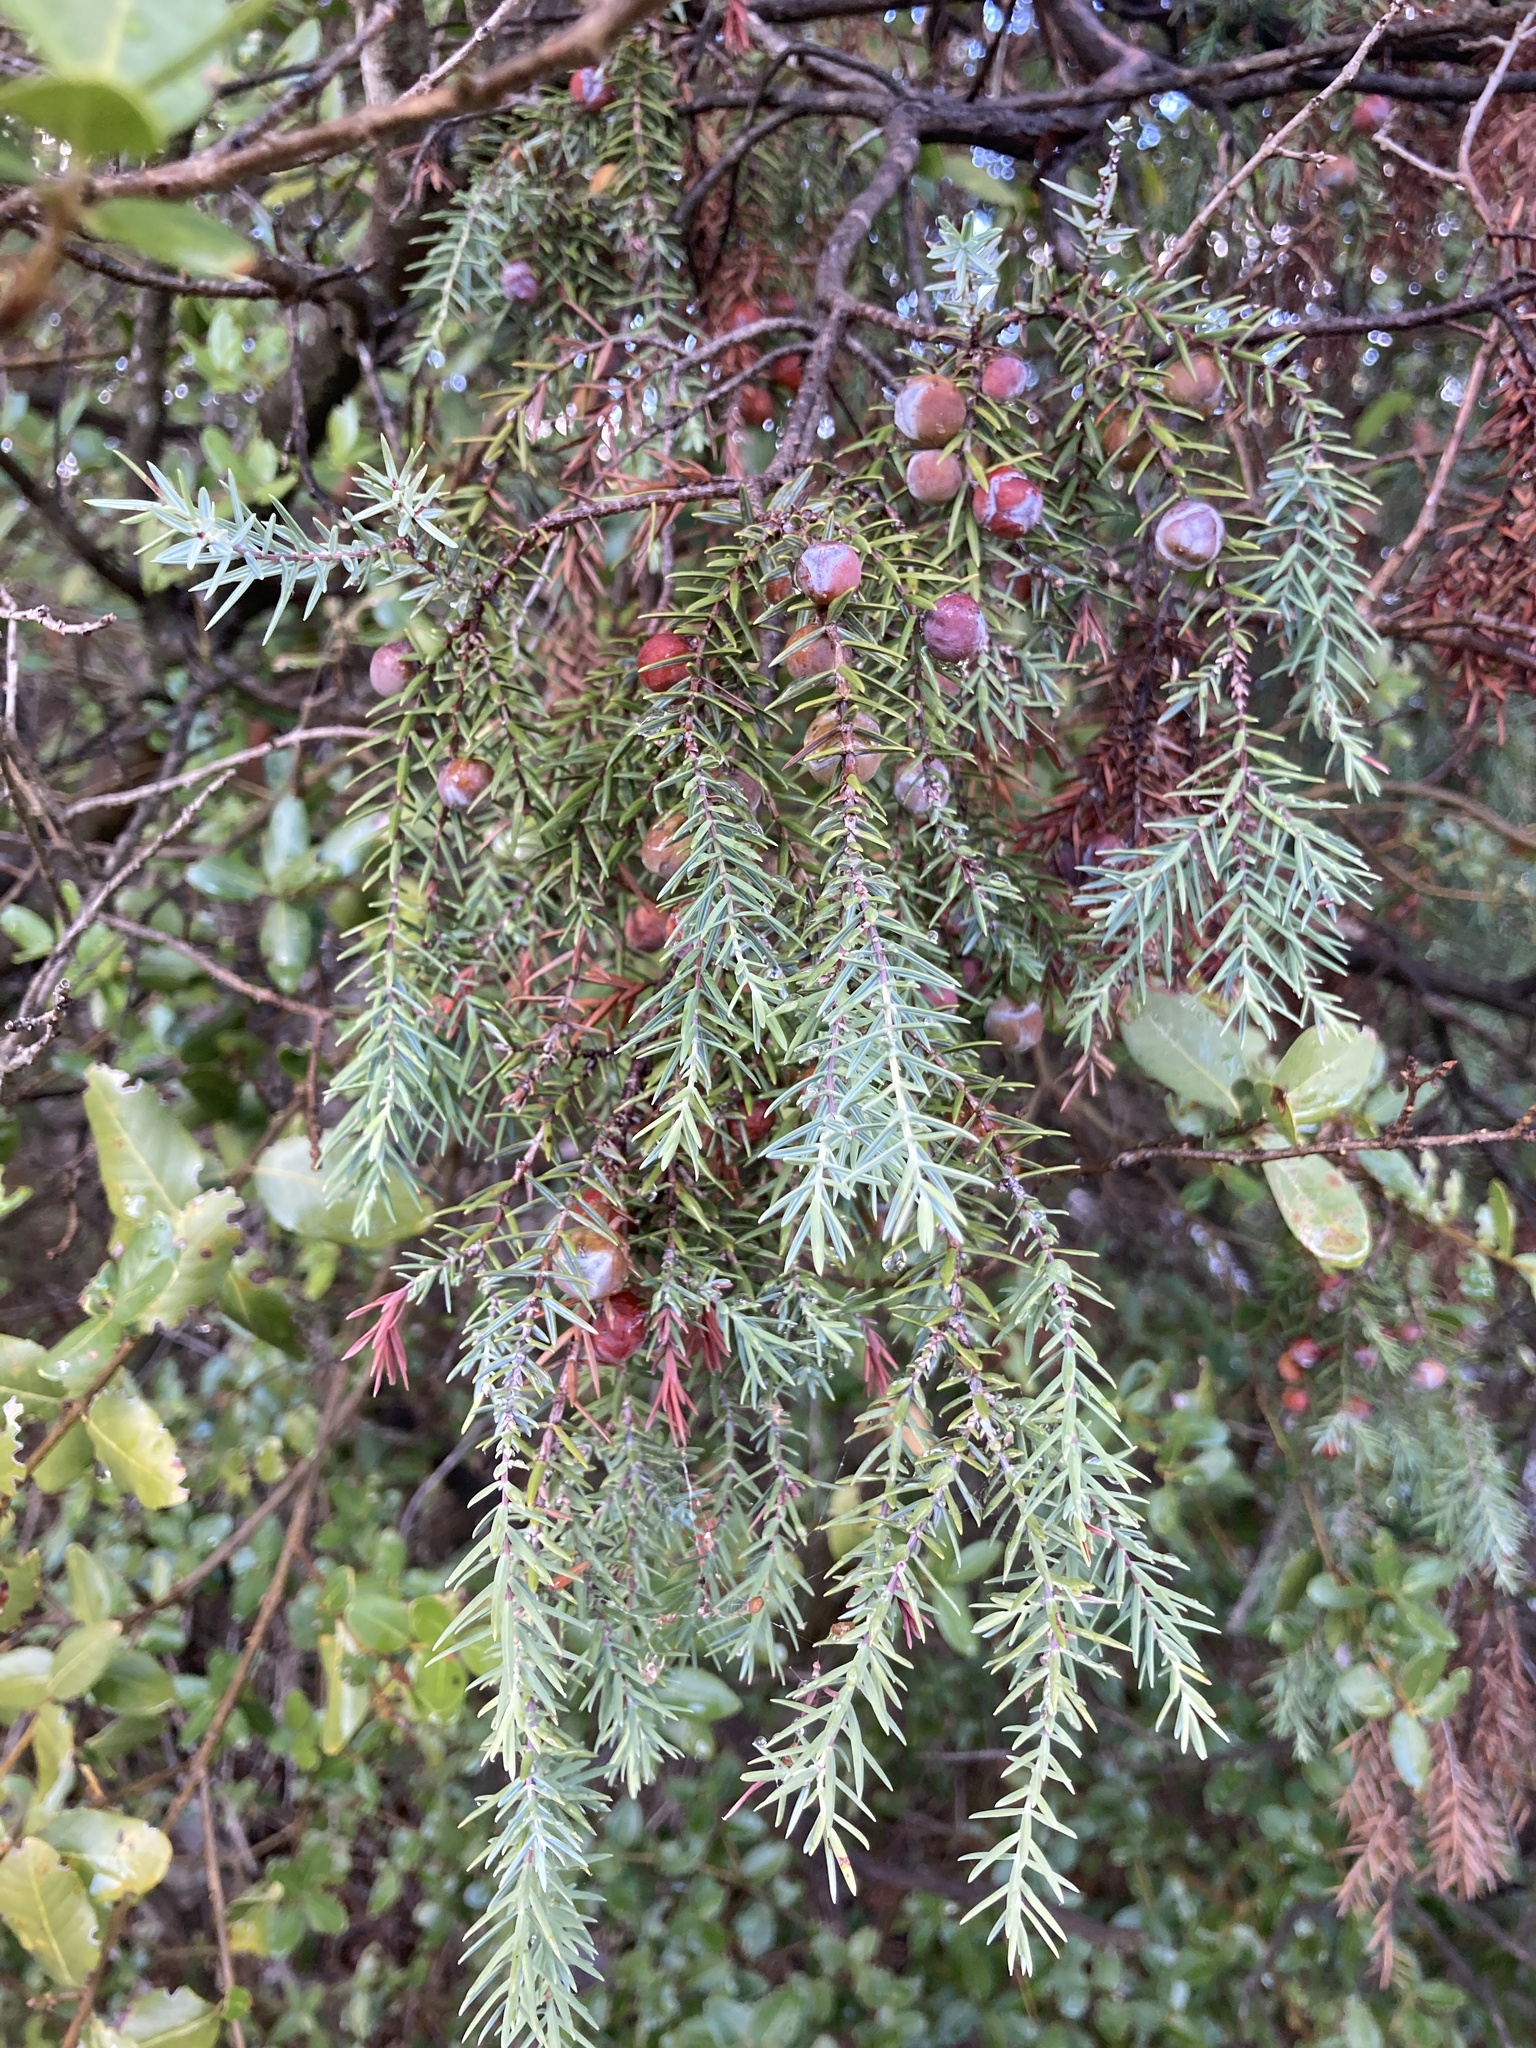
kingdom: Plantae
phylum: Tracheophyta
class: Pinopsida
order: Pinales
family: Cupressaceae
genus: Juniperus
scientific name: Juniperus oxycedrus
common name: Prickly juniper
